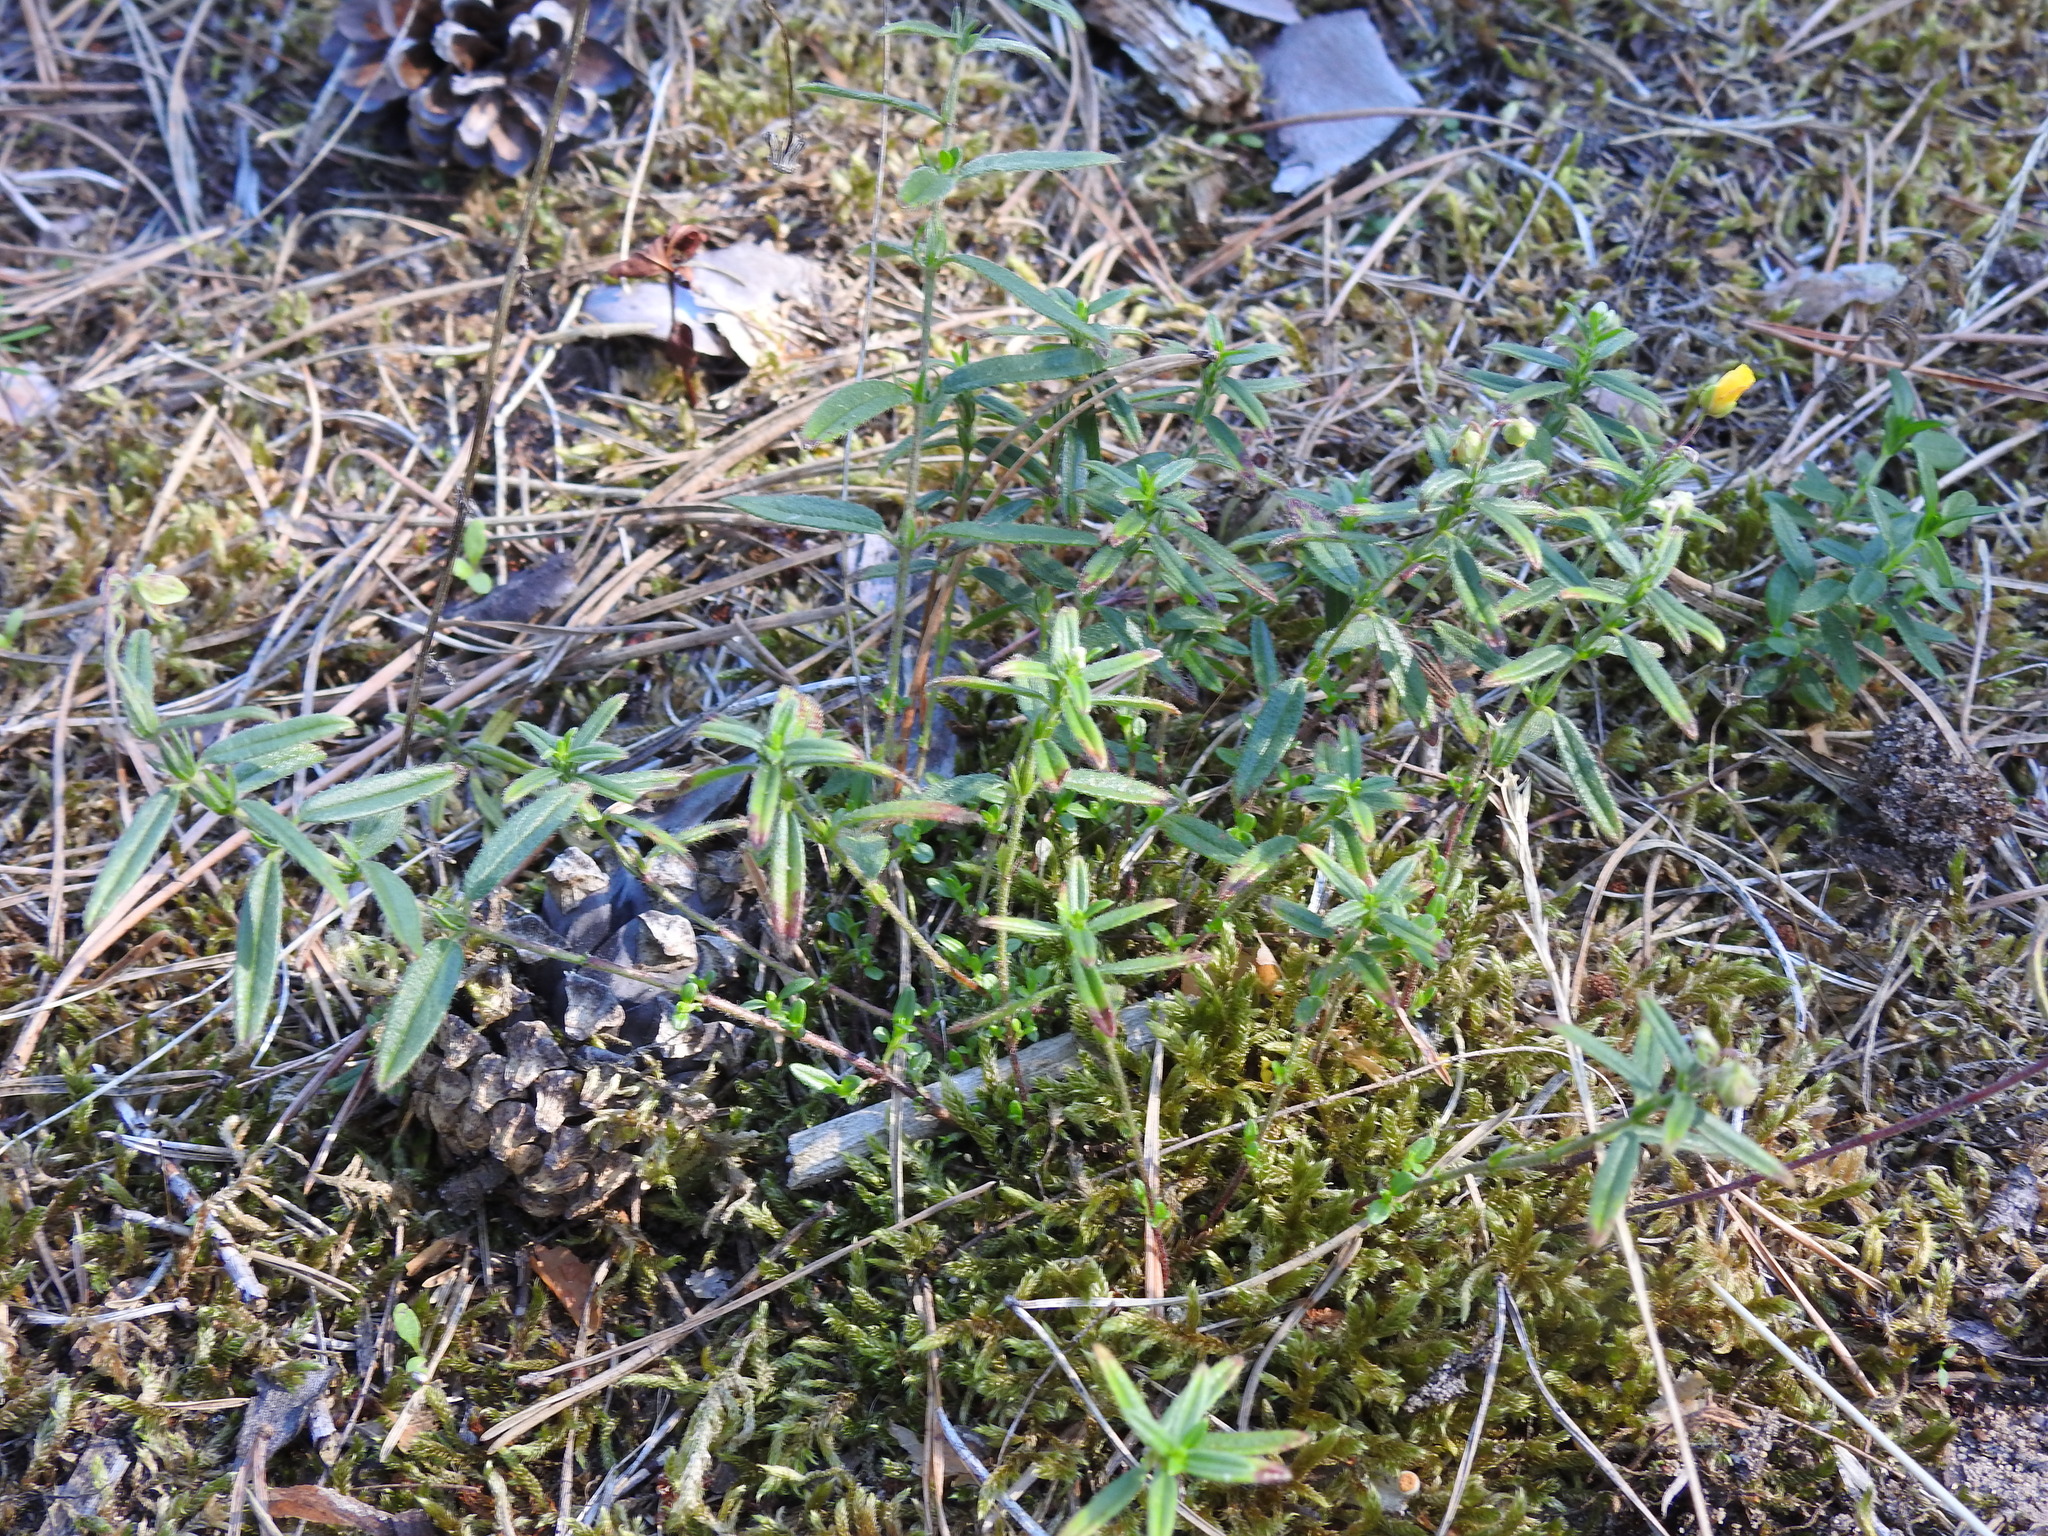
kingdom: Plantae
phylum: Tracheophyta
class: Magnoliopsida
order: Malvales
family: Cistaceae
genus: Helianthemum
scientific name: Helianthemum nummularium
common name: Common rock-rose
